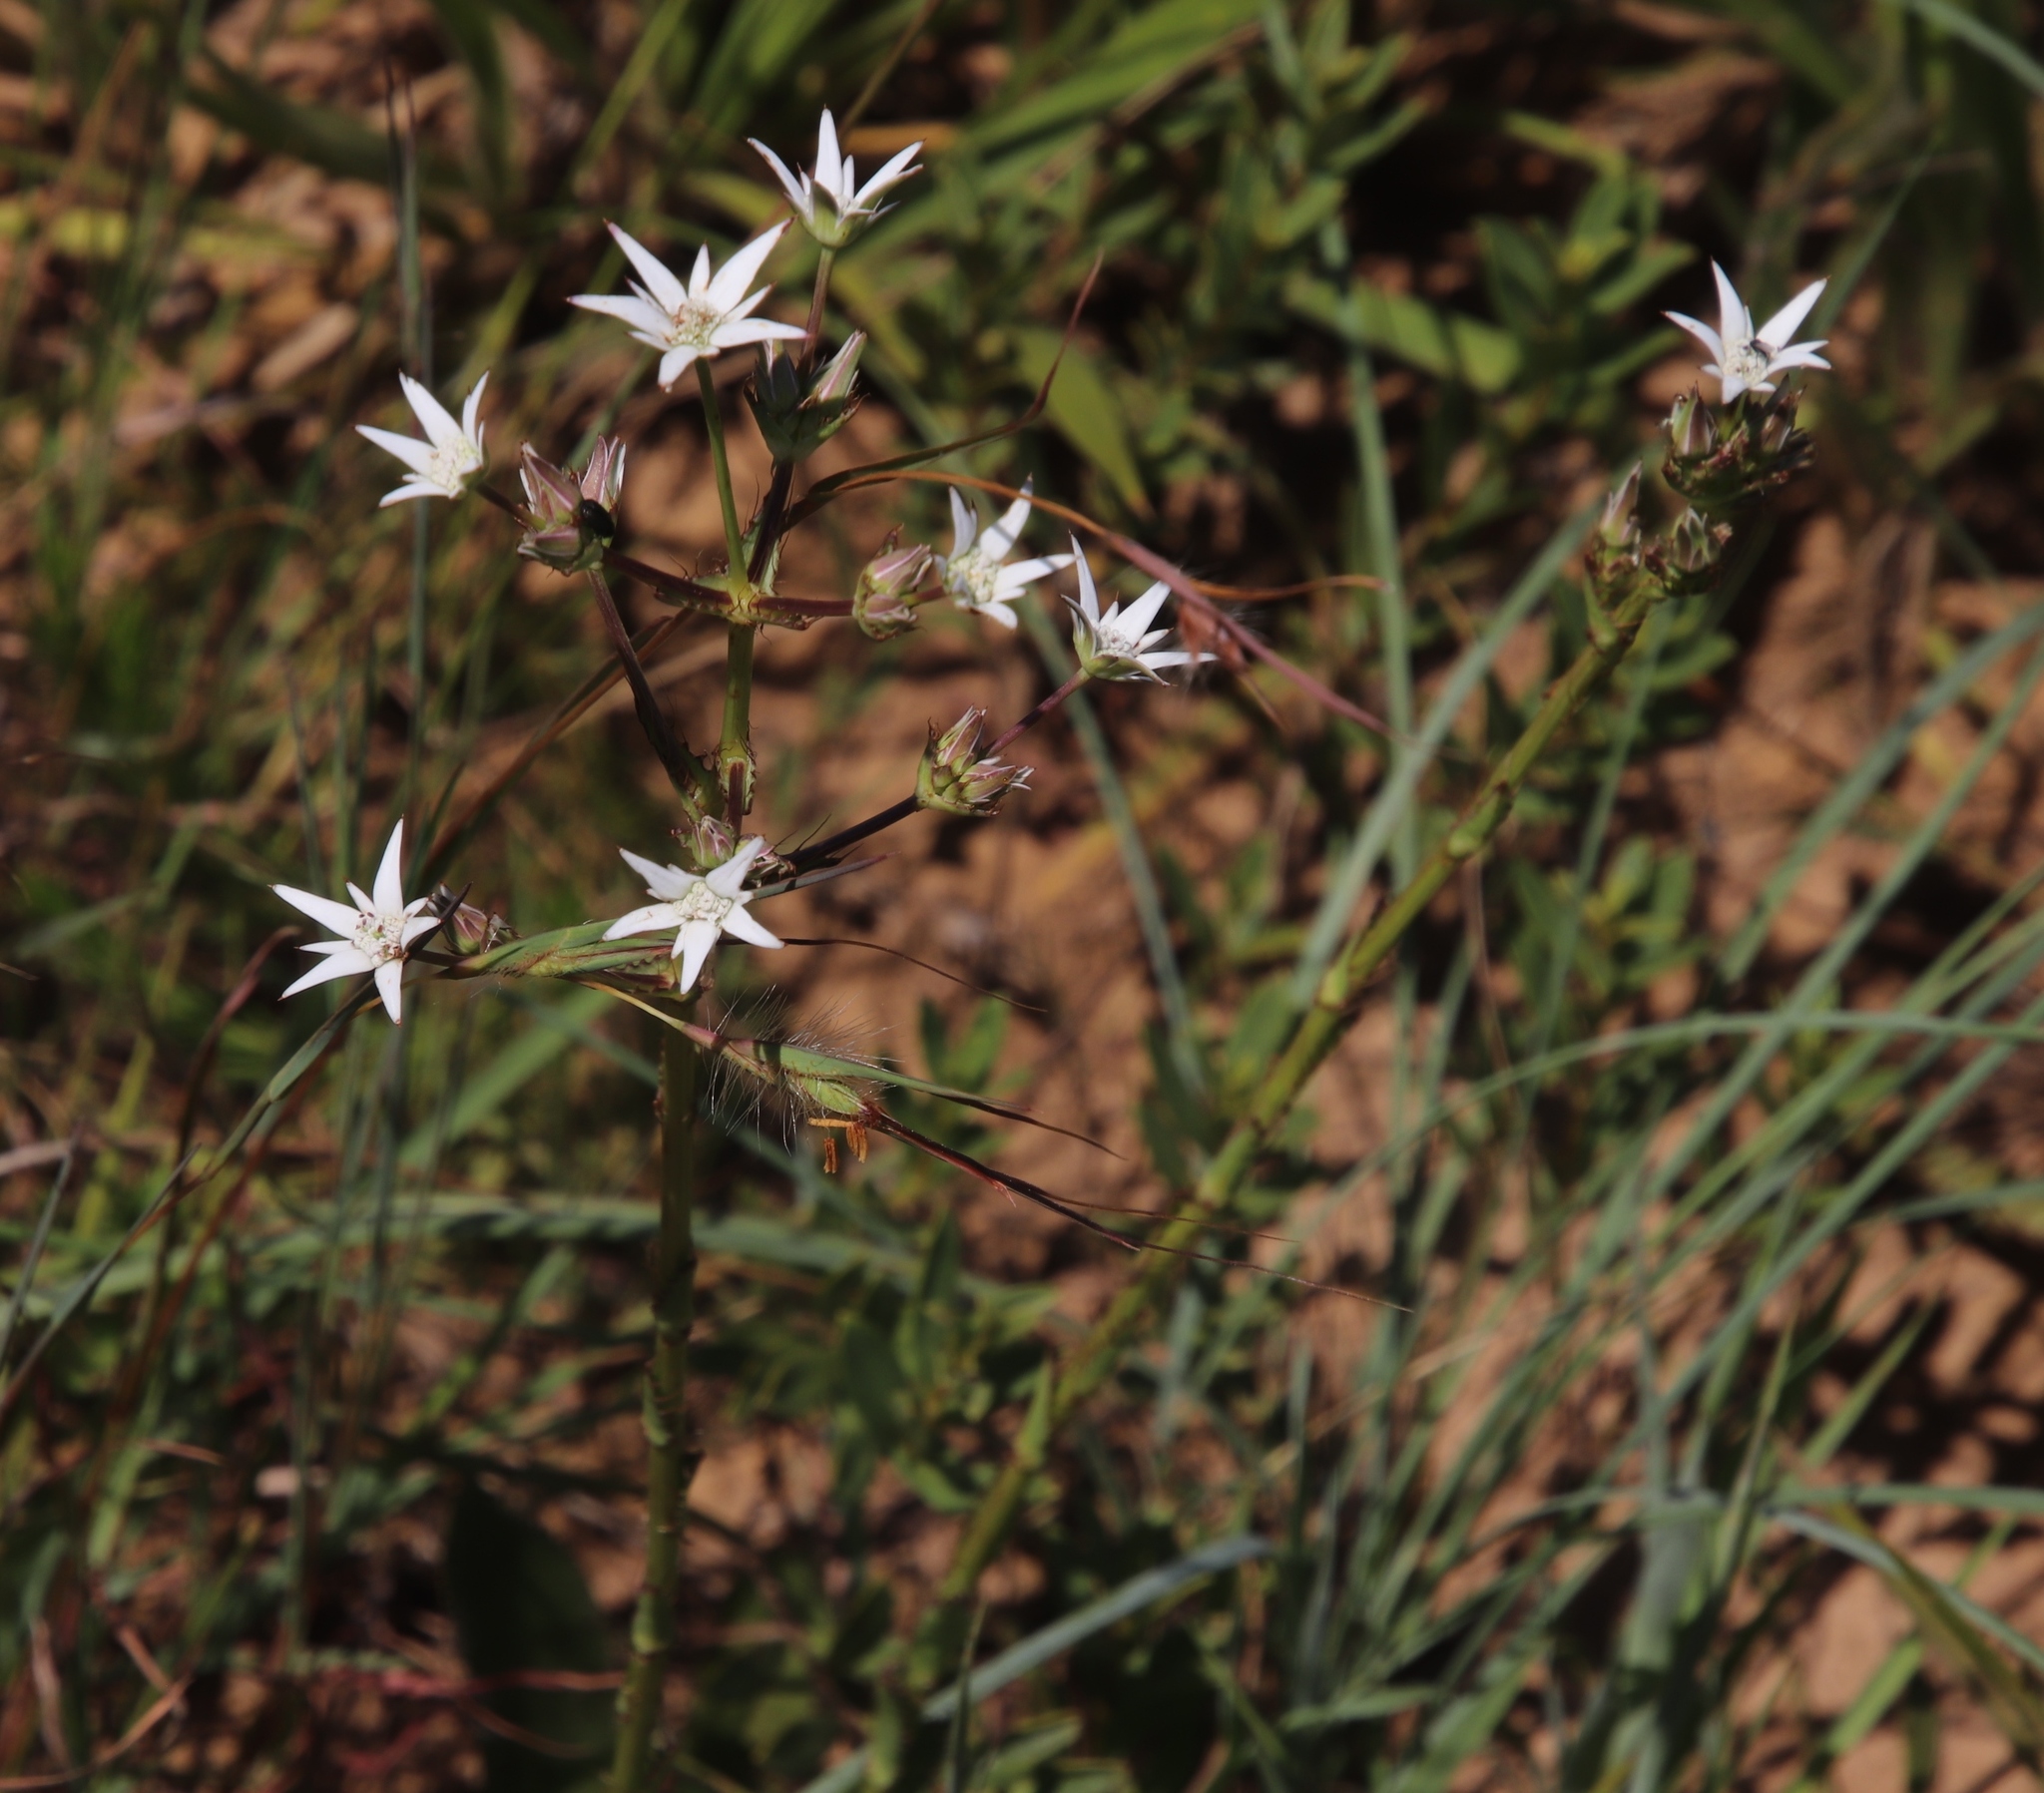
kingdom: Plantae
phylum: Tracheophyta
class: Magnoliopsida
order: Apiales
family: Apiaceae
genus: Alepidea
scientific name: Alepidea peduncularis
